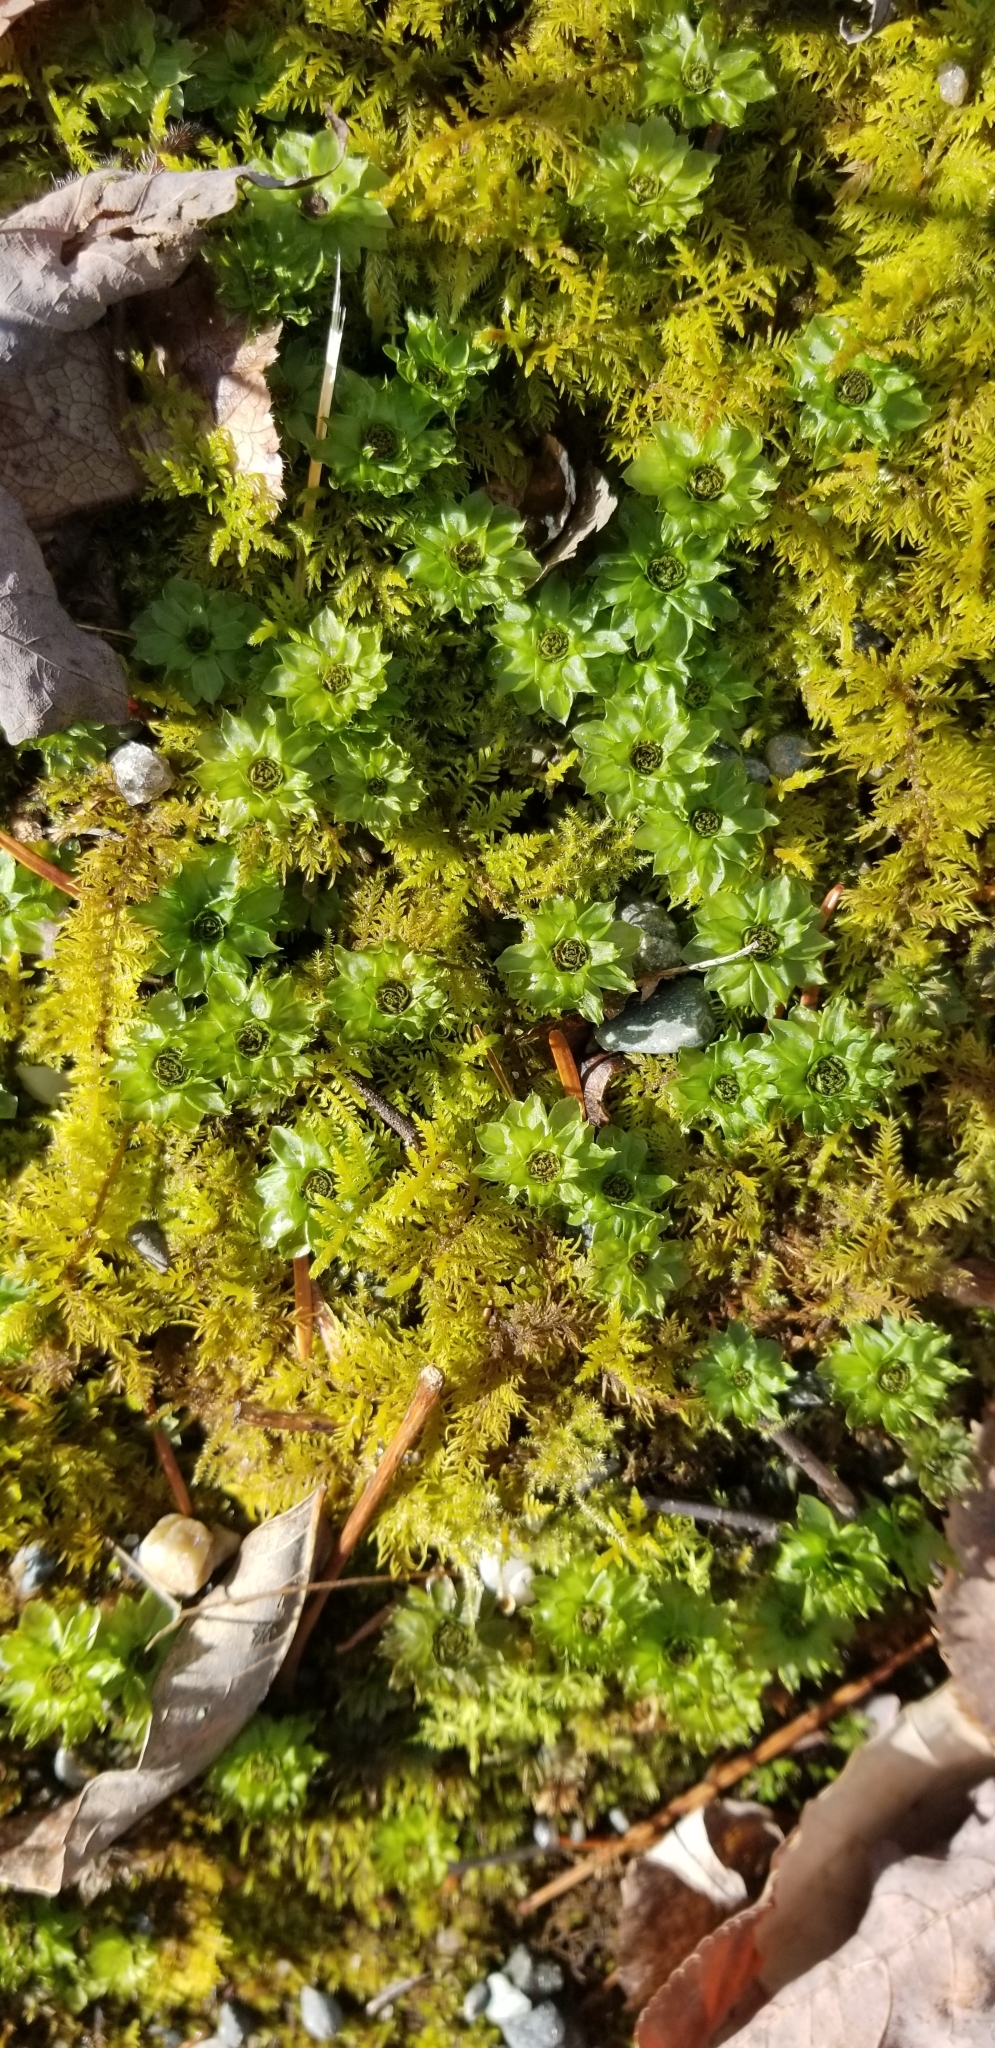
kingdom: Plantae
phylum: Bryophyta
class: Bryopsida
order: Bryales
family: Bryaceae
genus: Rhodobryum
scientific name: Rhodobryum ontariense
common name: Ontario rhodobryum moss
